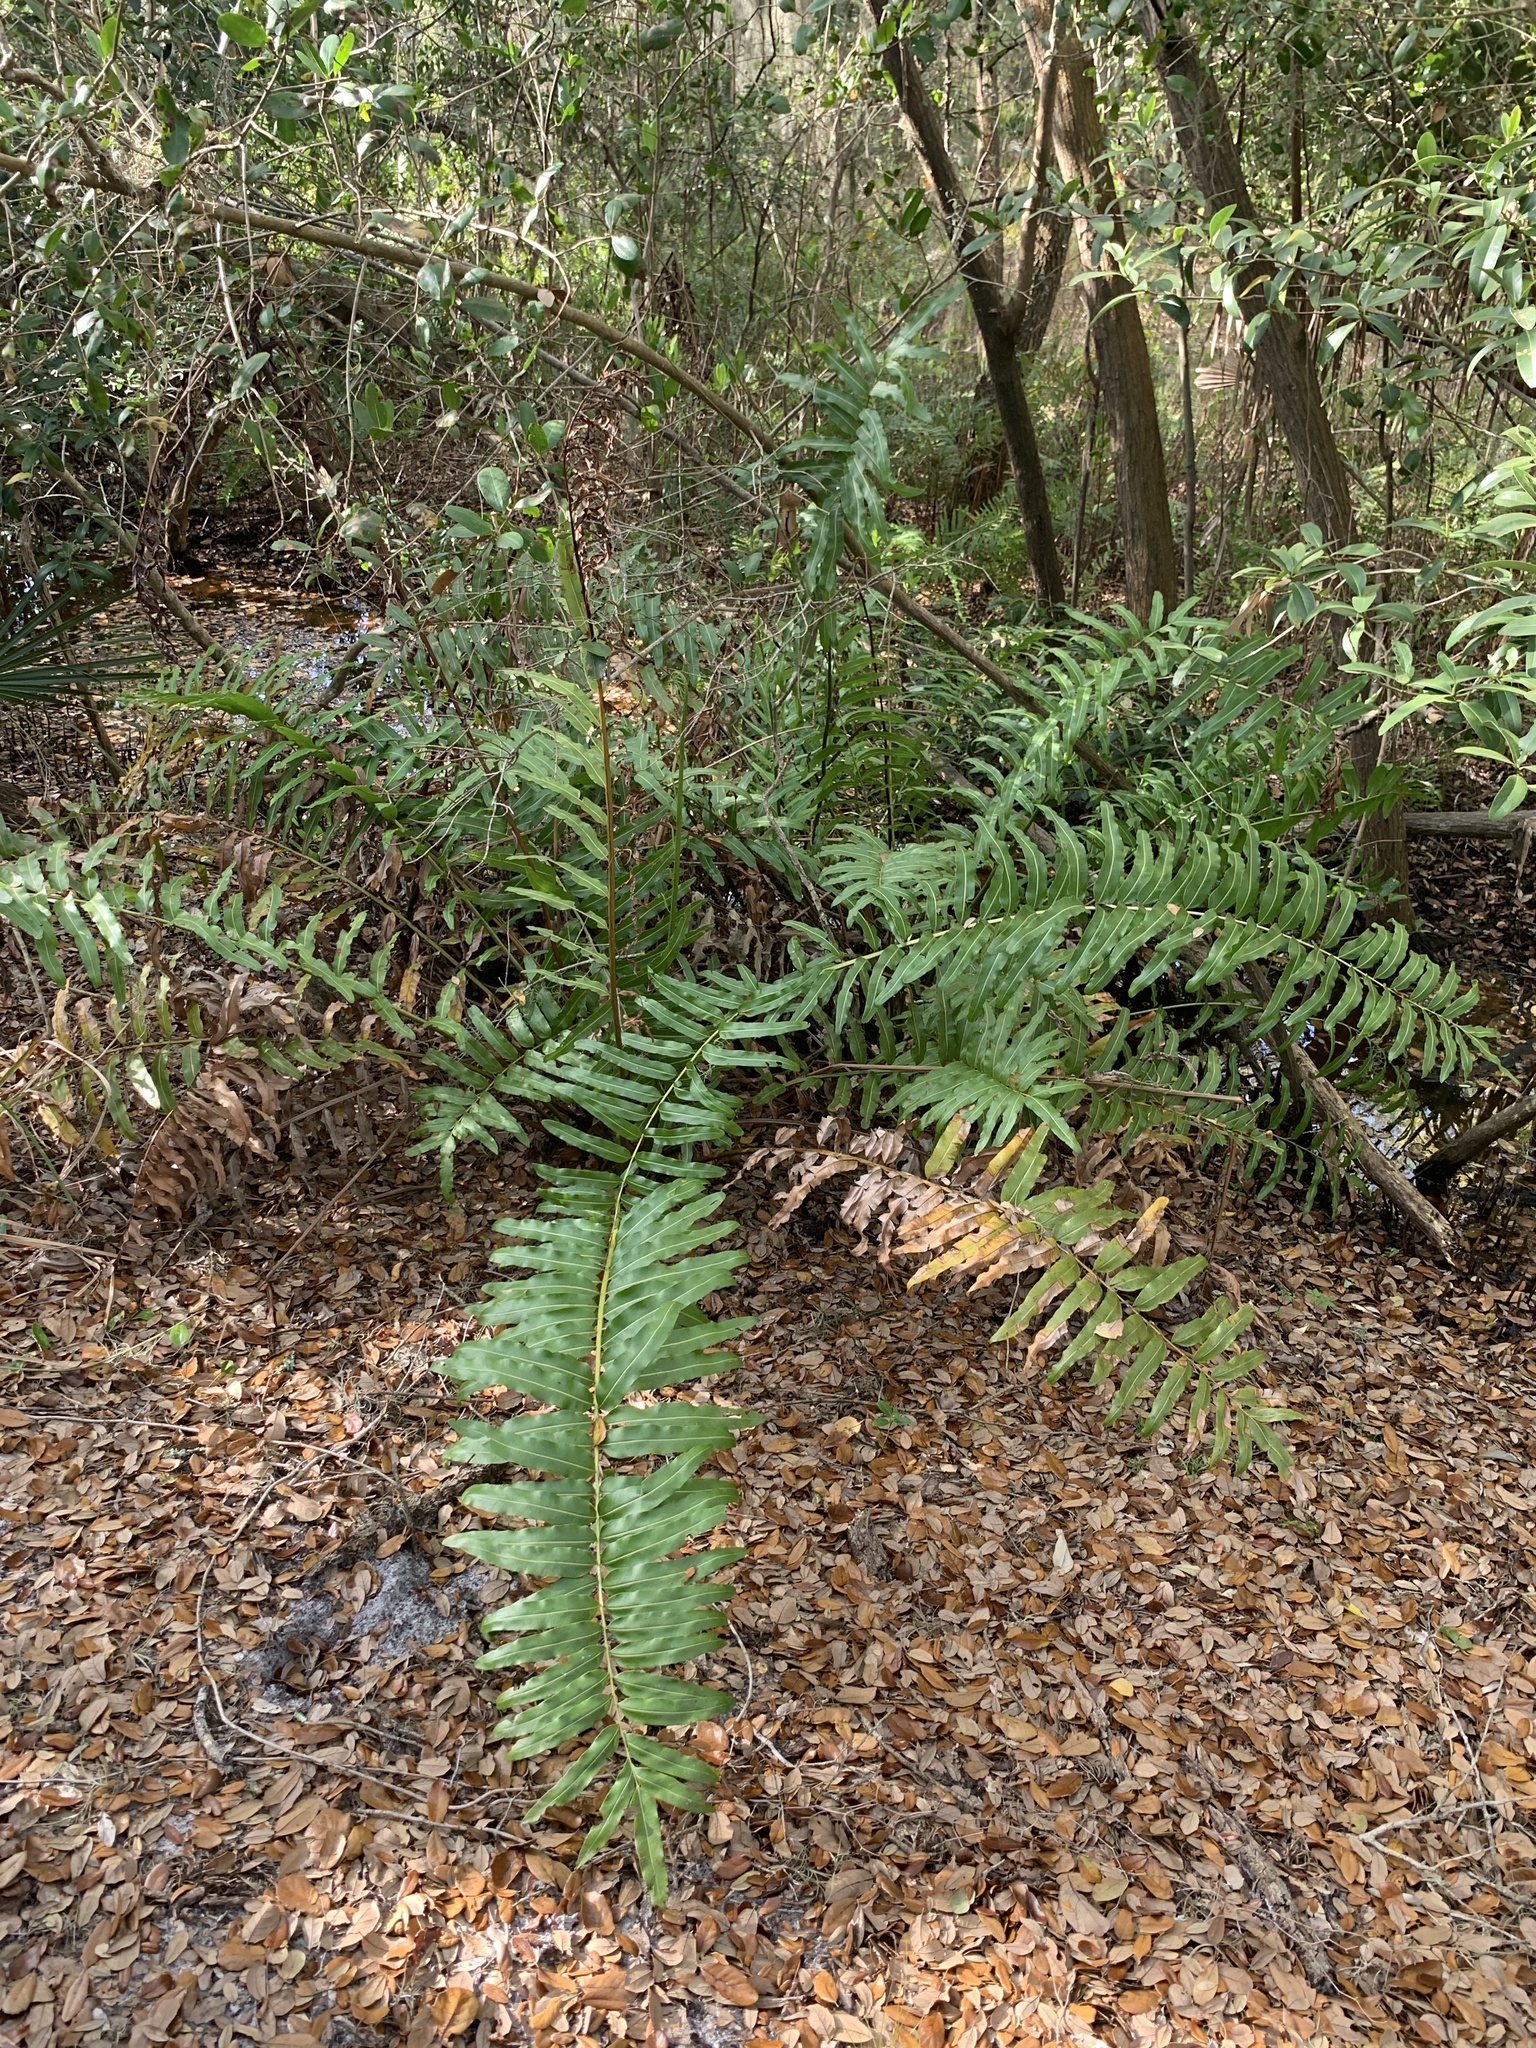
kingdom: Plantae
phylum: Tracheophyta
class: Polypodiopsida
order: Polypodiales
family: Pteridaceae
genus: Acrostichum
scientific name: Acrostichum danaeifolium
